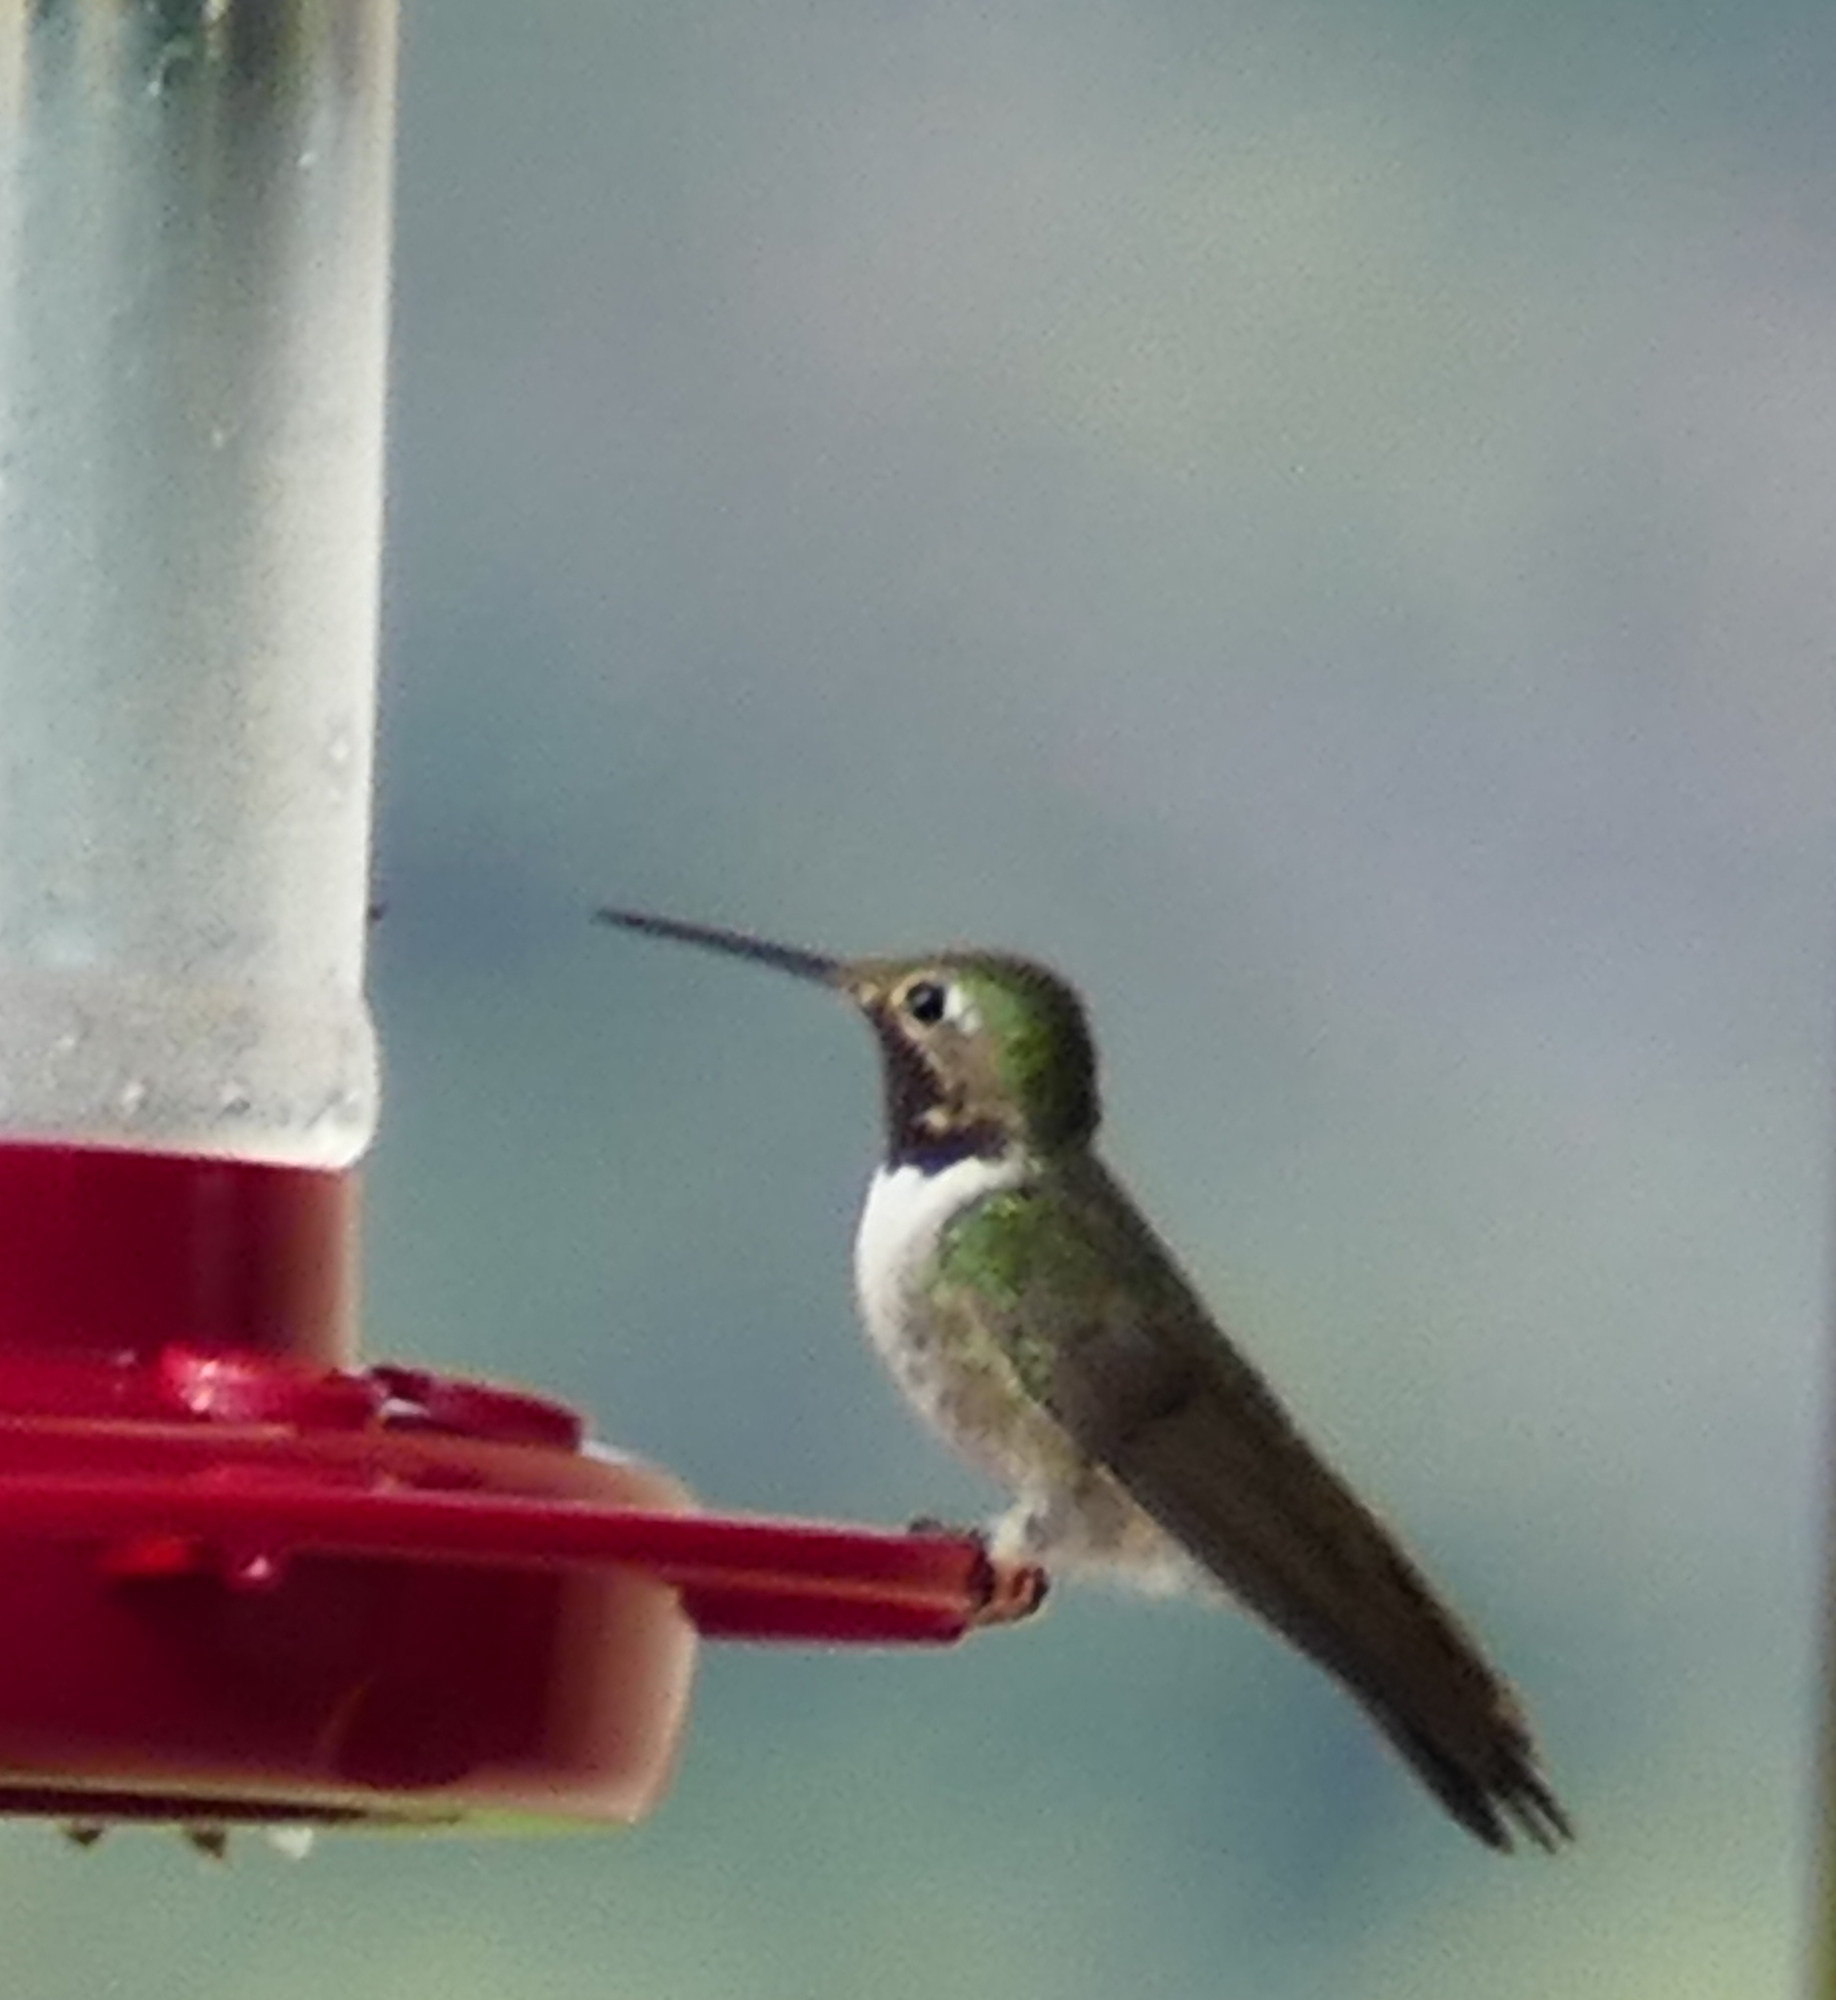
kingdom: Animalia
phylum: Chordata
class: Aves
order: Apodiformes
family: Trochilidae
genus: Selasphorus
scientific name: Selasphorus platycercus
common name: Broad-tailed hummingbird
